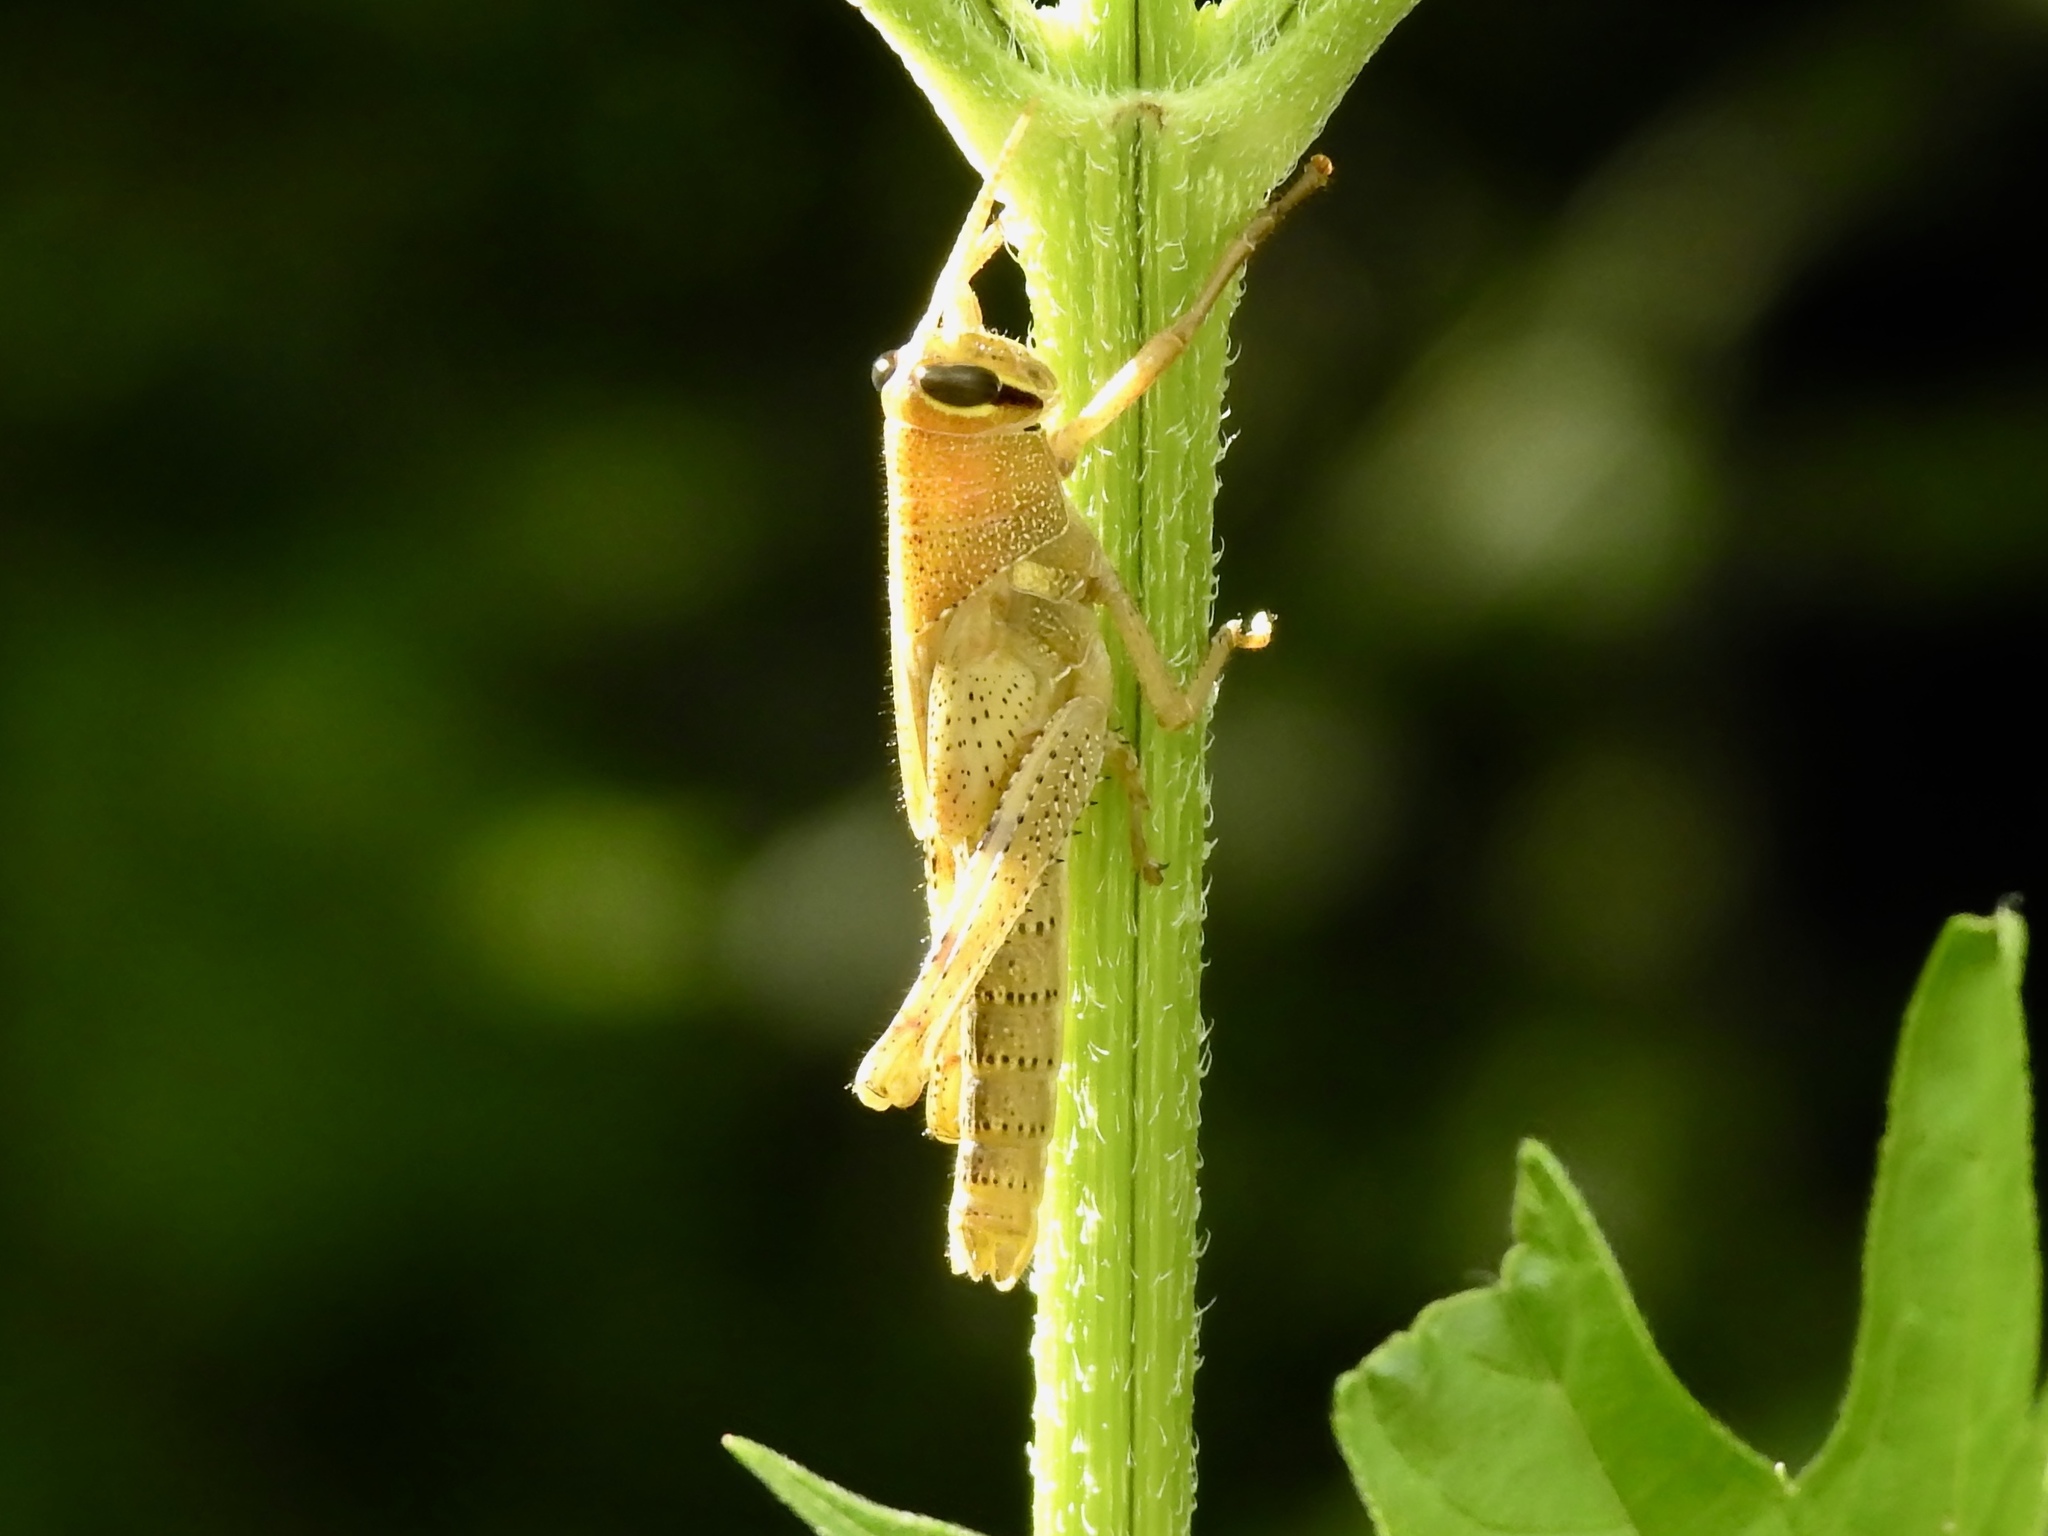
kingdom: Animalia
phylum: Arthropoda
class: Insecta
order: Orthoptera
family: Acrididae
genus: Schistocerca
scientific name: Schistocerca obscura
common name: Obscure bird grasshopper
